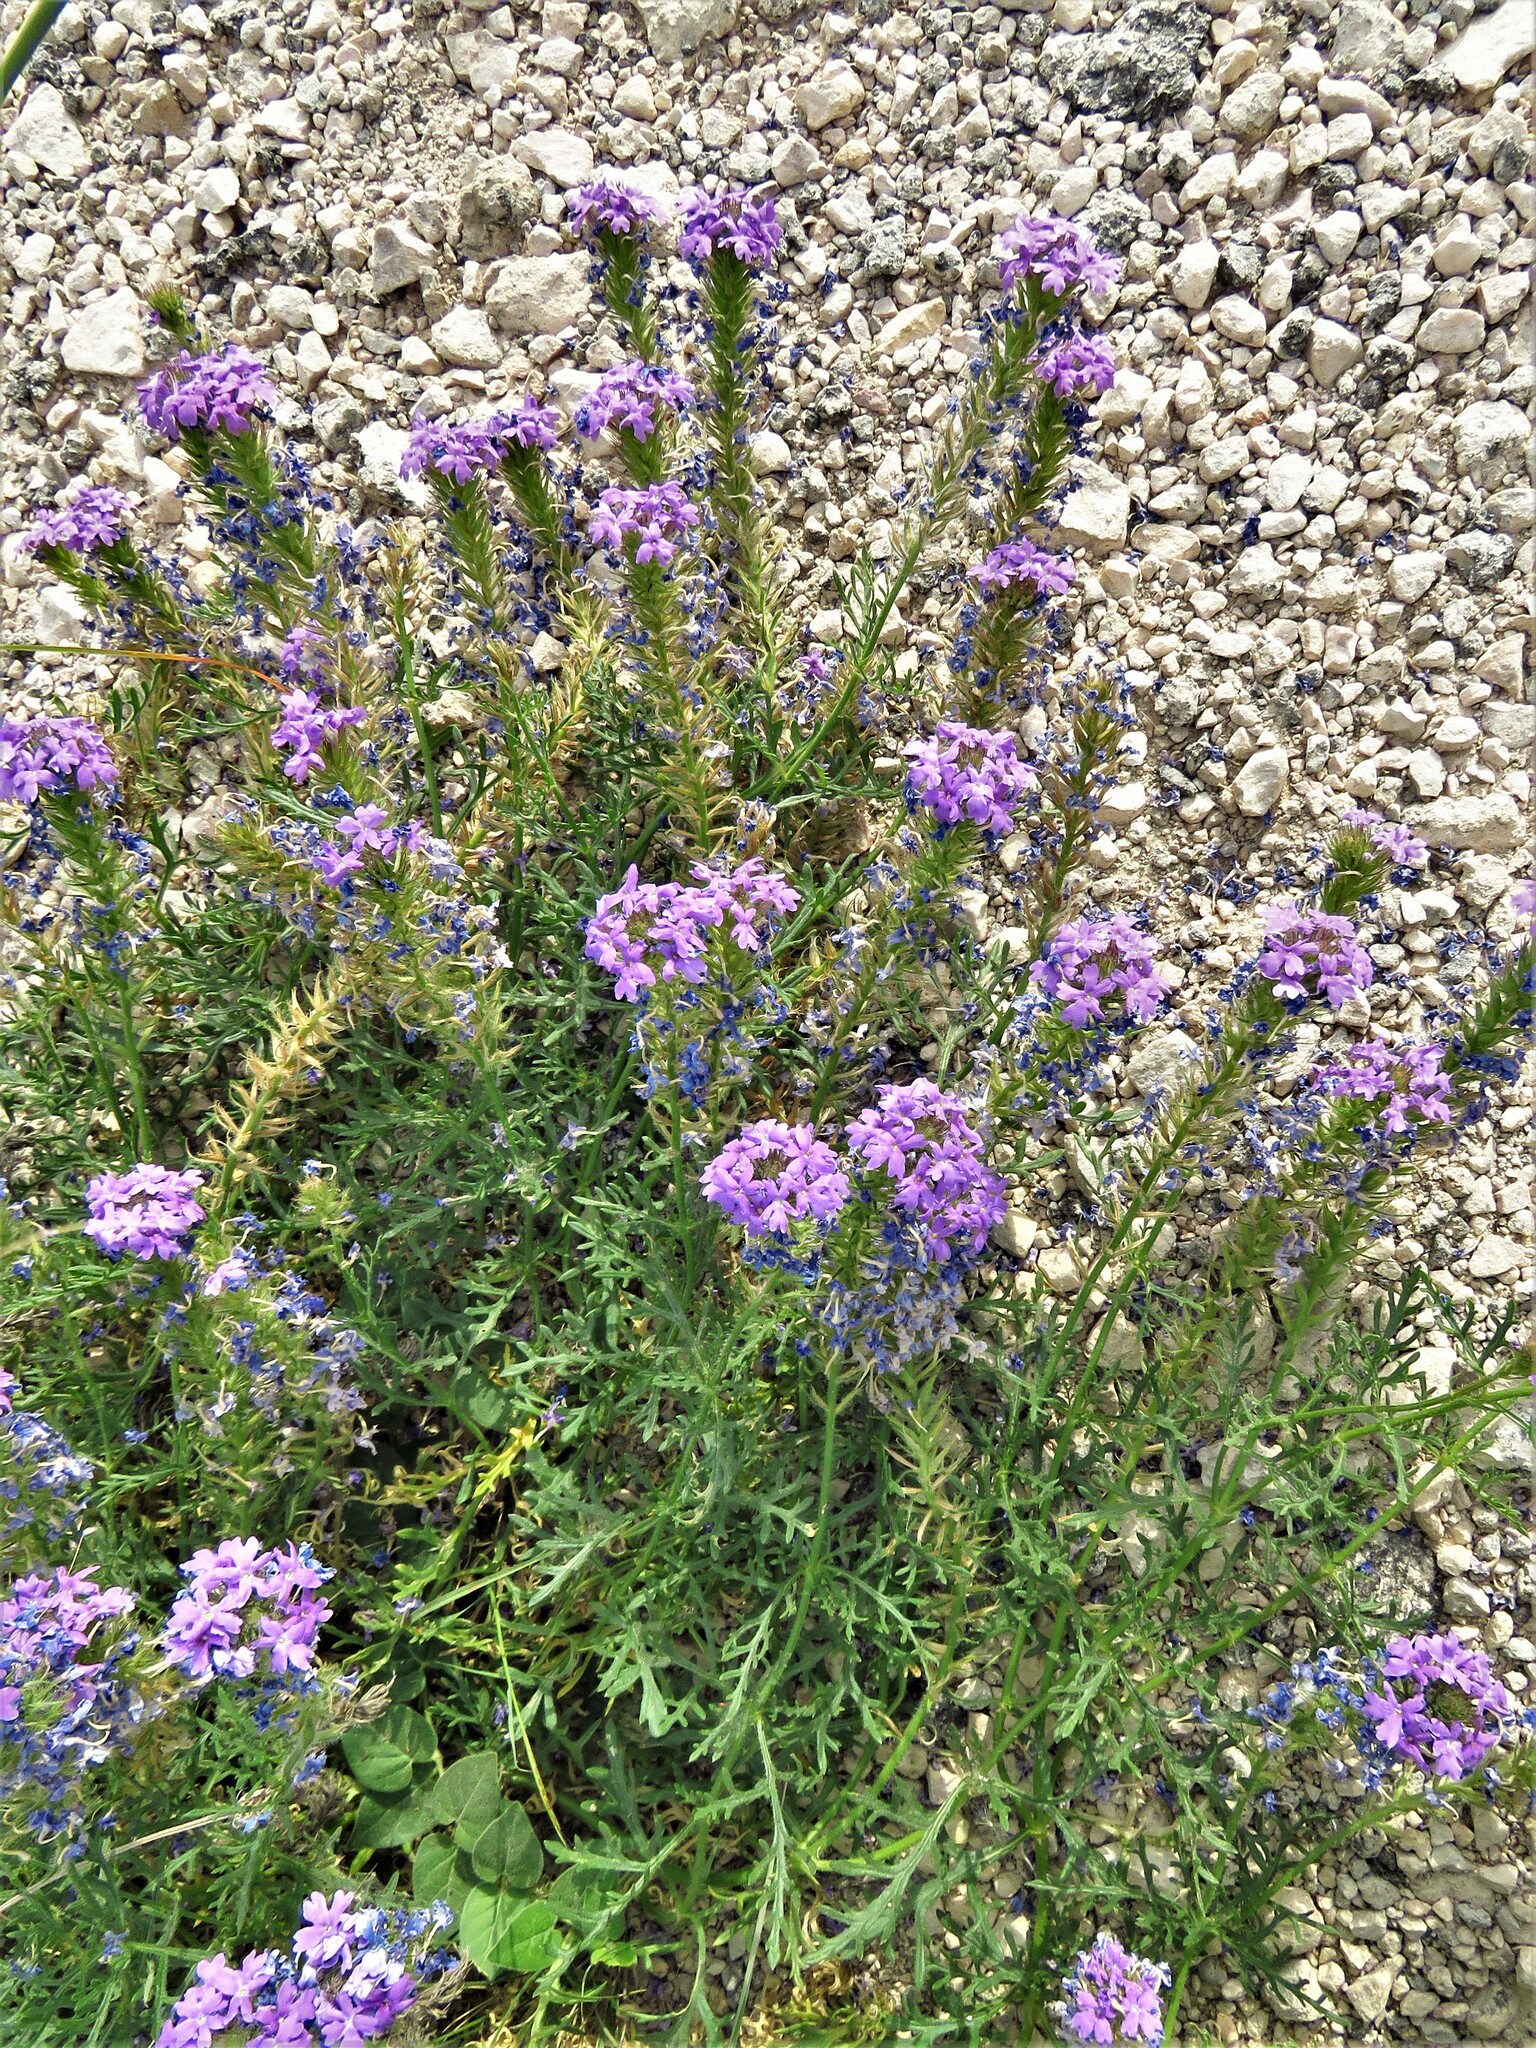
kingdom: Plantae
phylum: Tracheophyta
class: Magnoliopsida
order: Lamiales
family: Verbenaceae
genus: Verbena
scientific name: Verbena bipinnatifida
